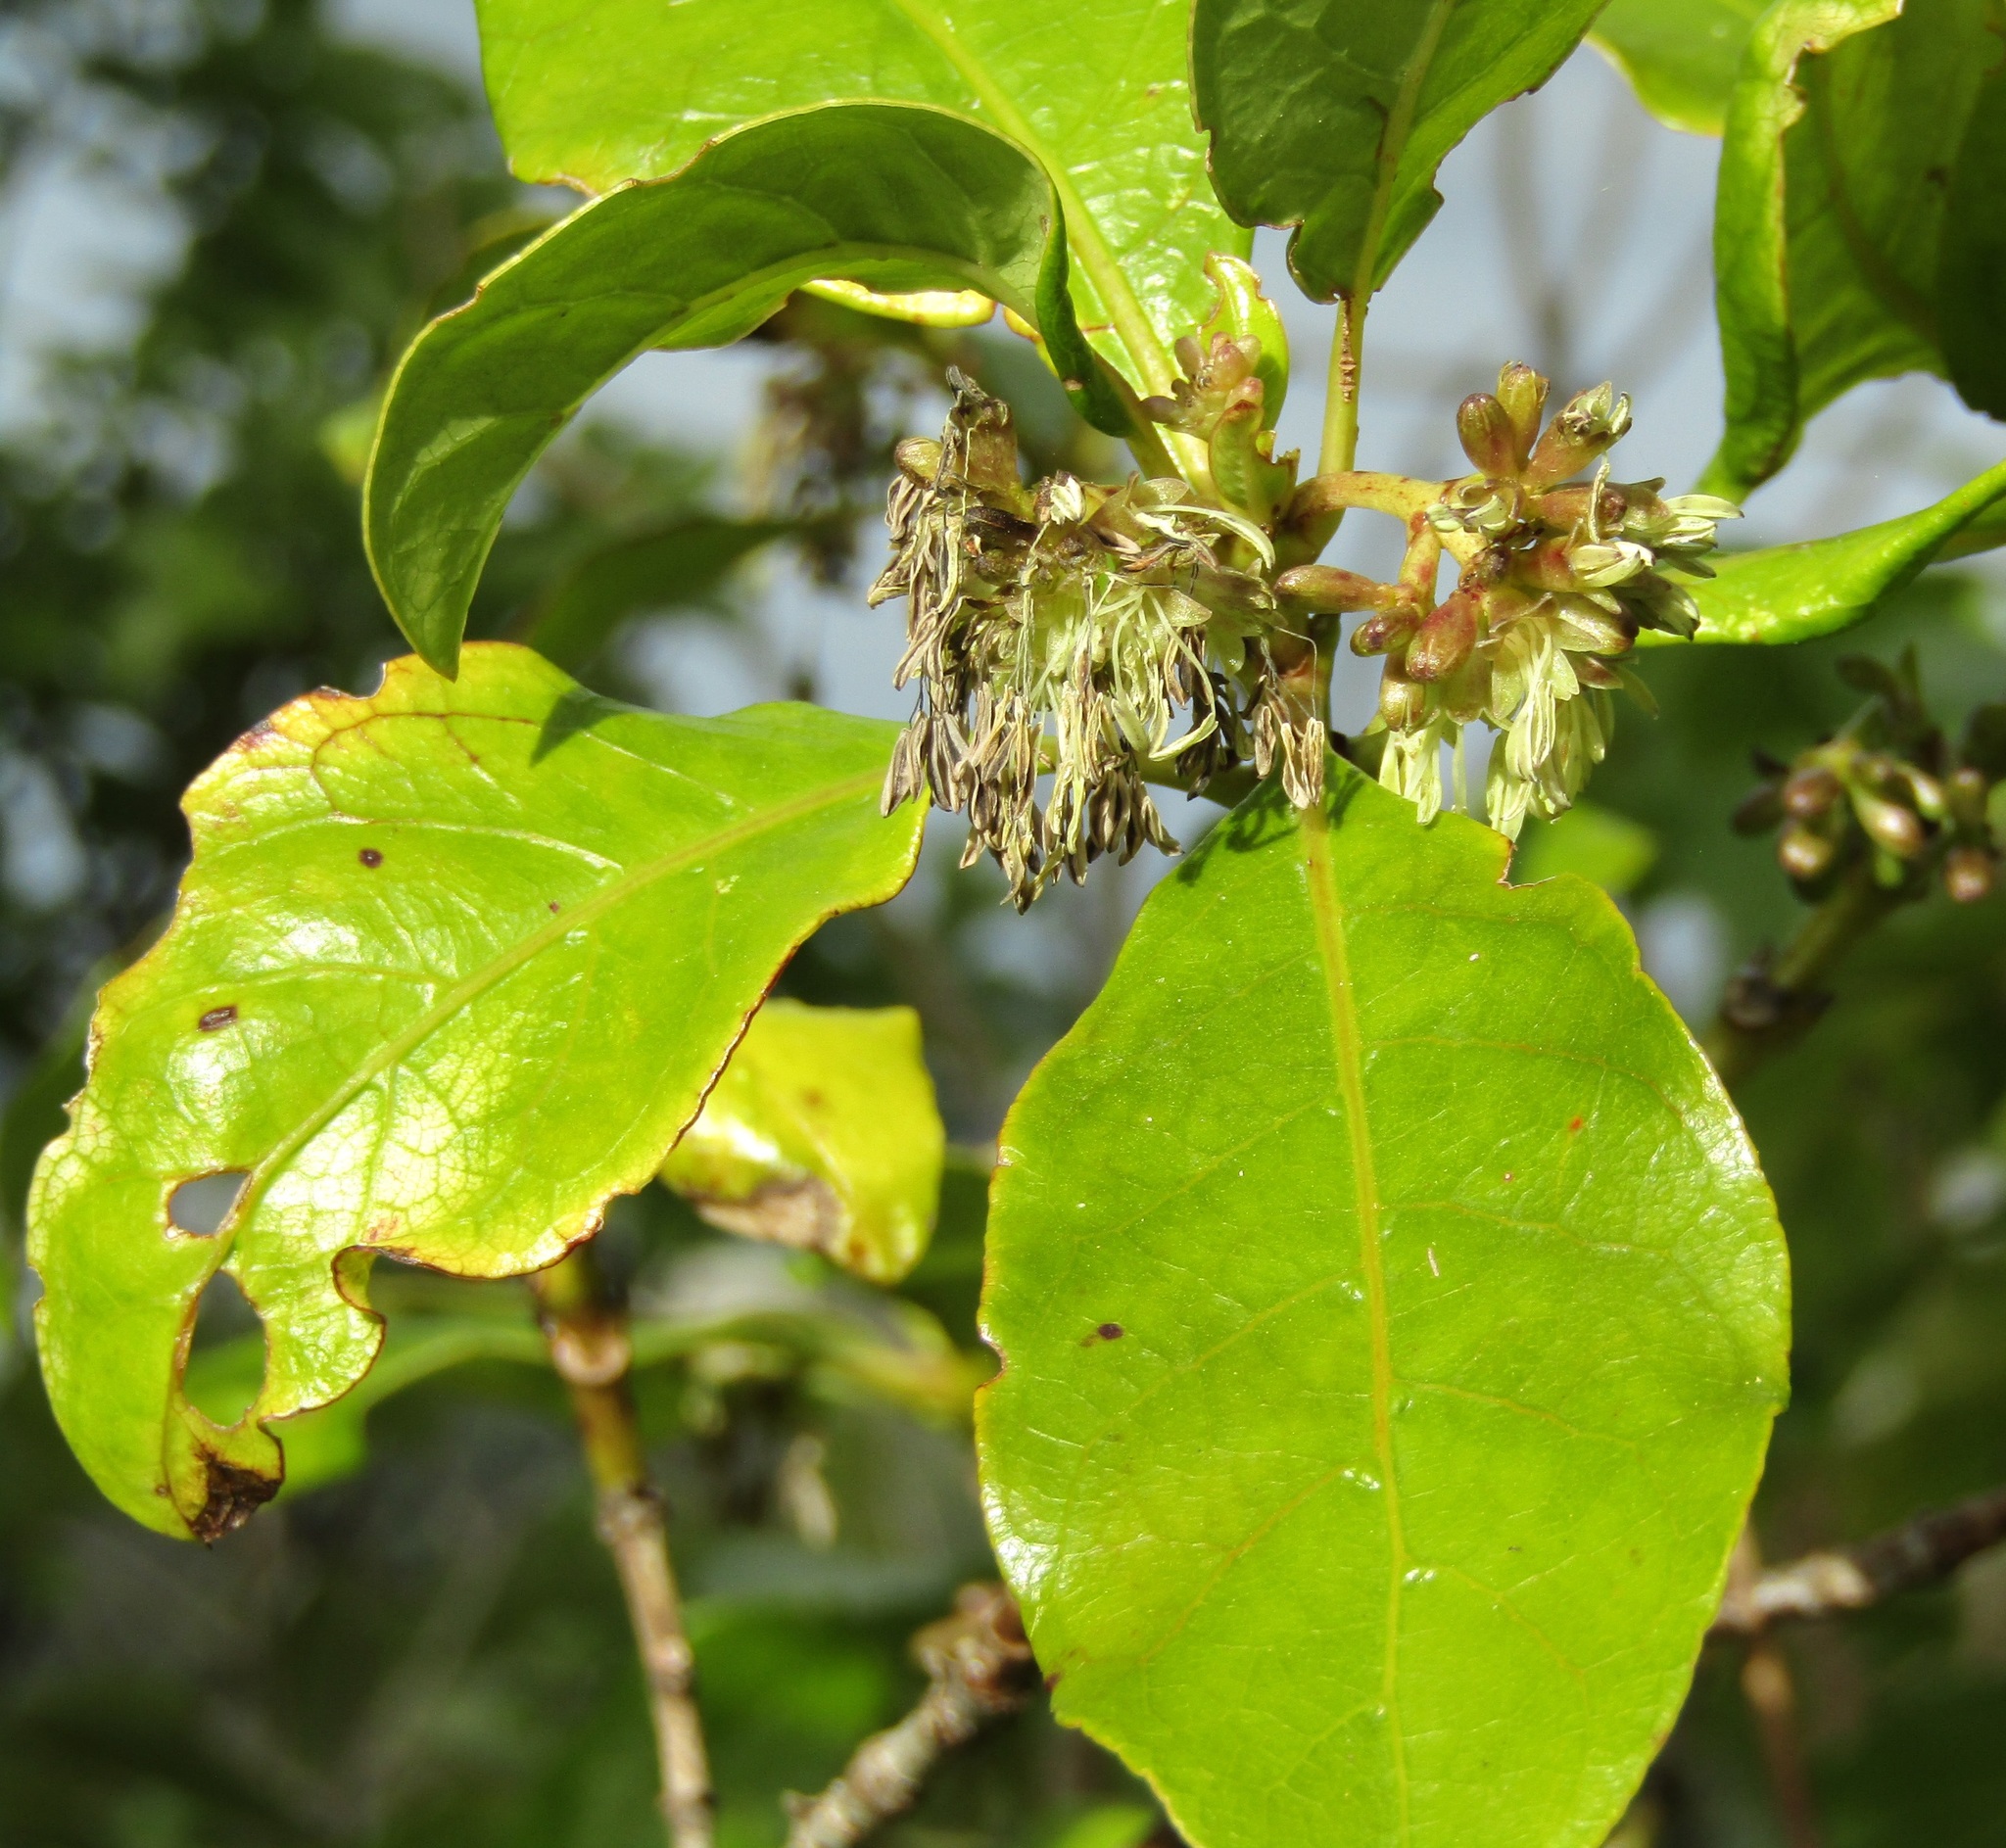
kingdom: Plantae
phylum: Tracheophyta
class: Magnoliopsida
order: Gentianales
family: Rubiaceae
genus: Coprosma
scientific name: Coprosma autumnalis
